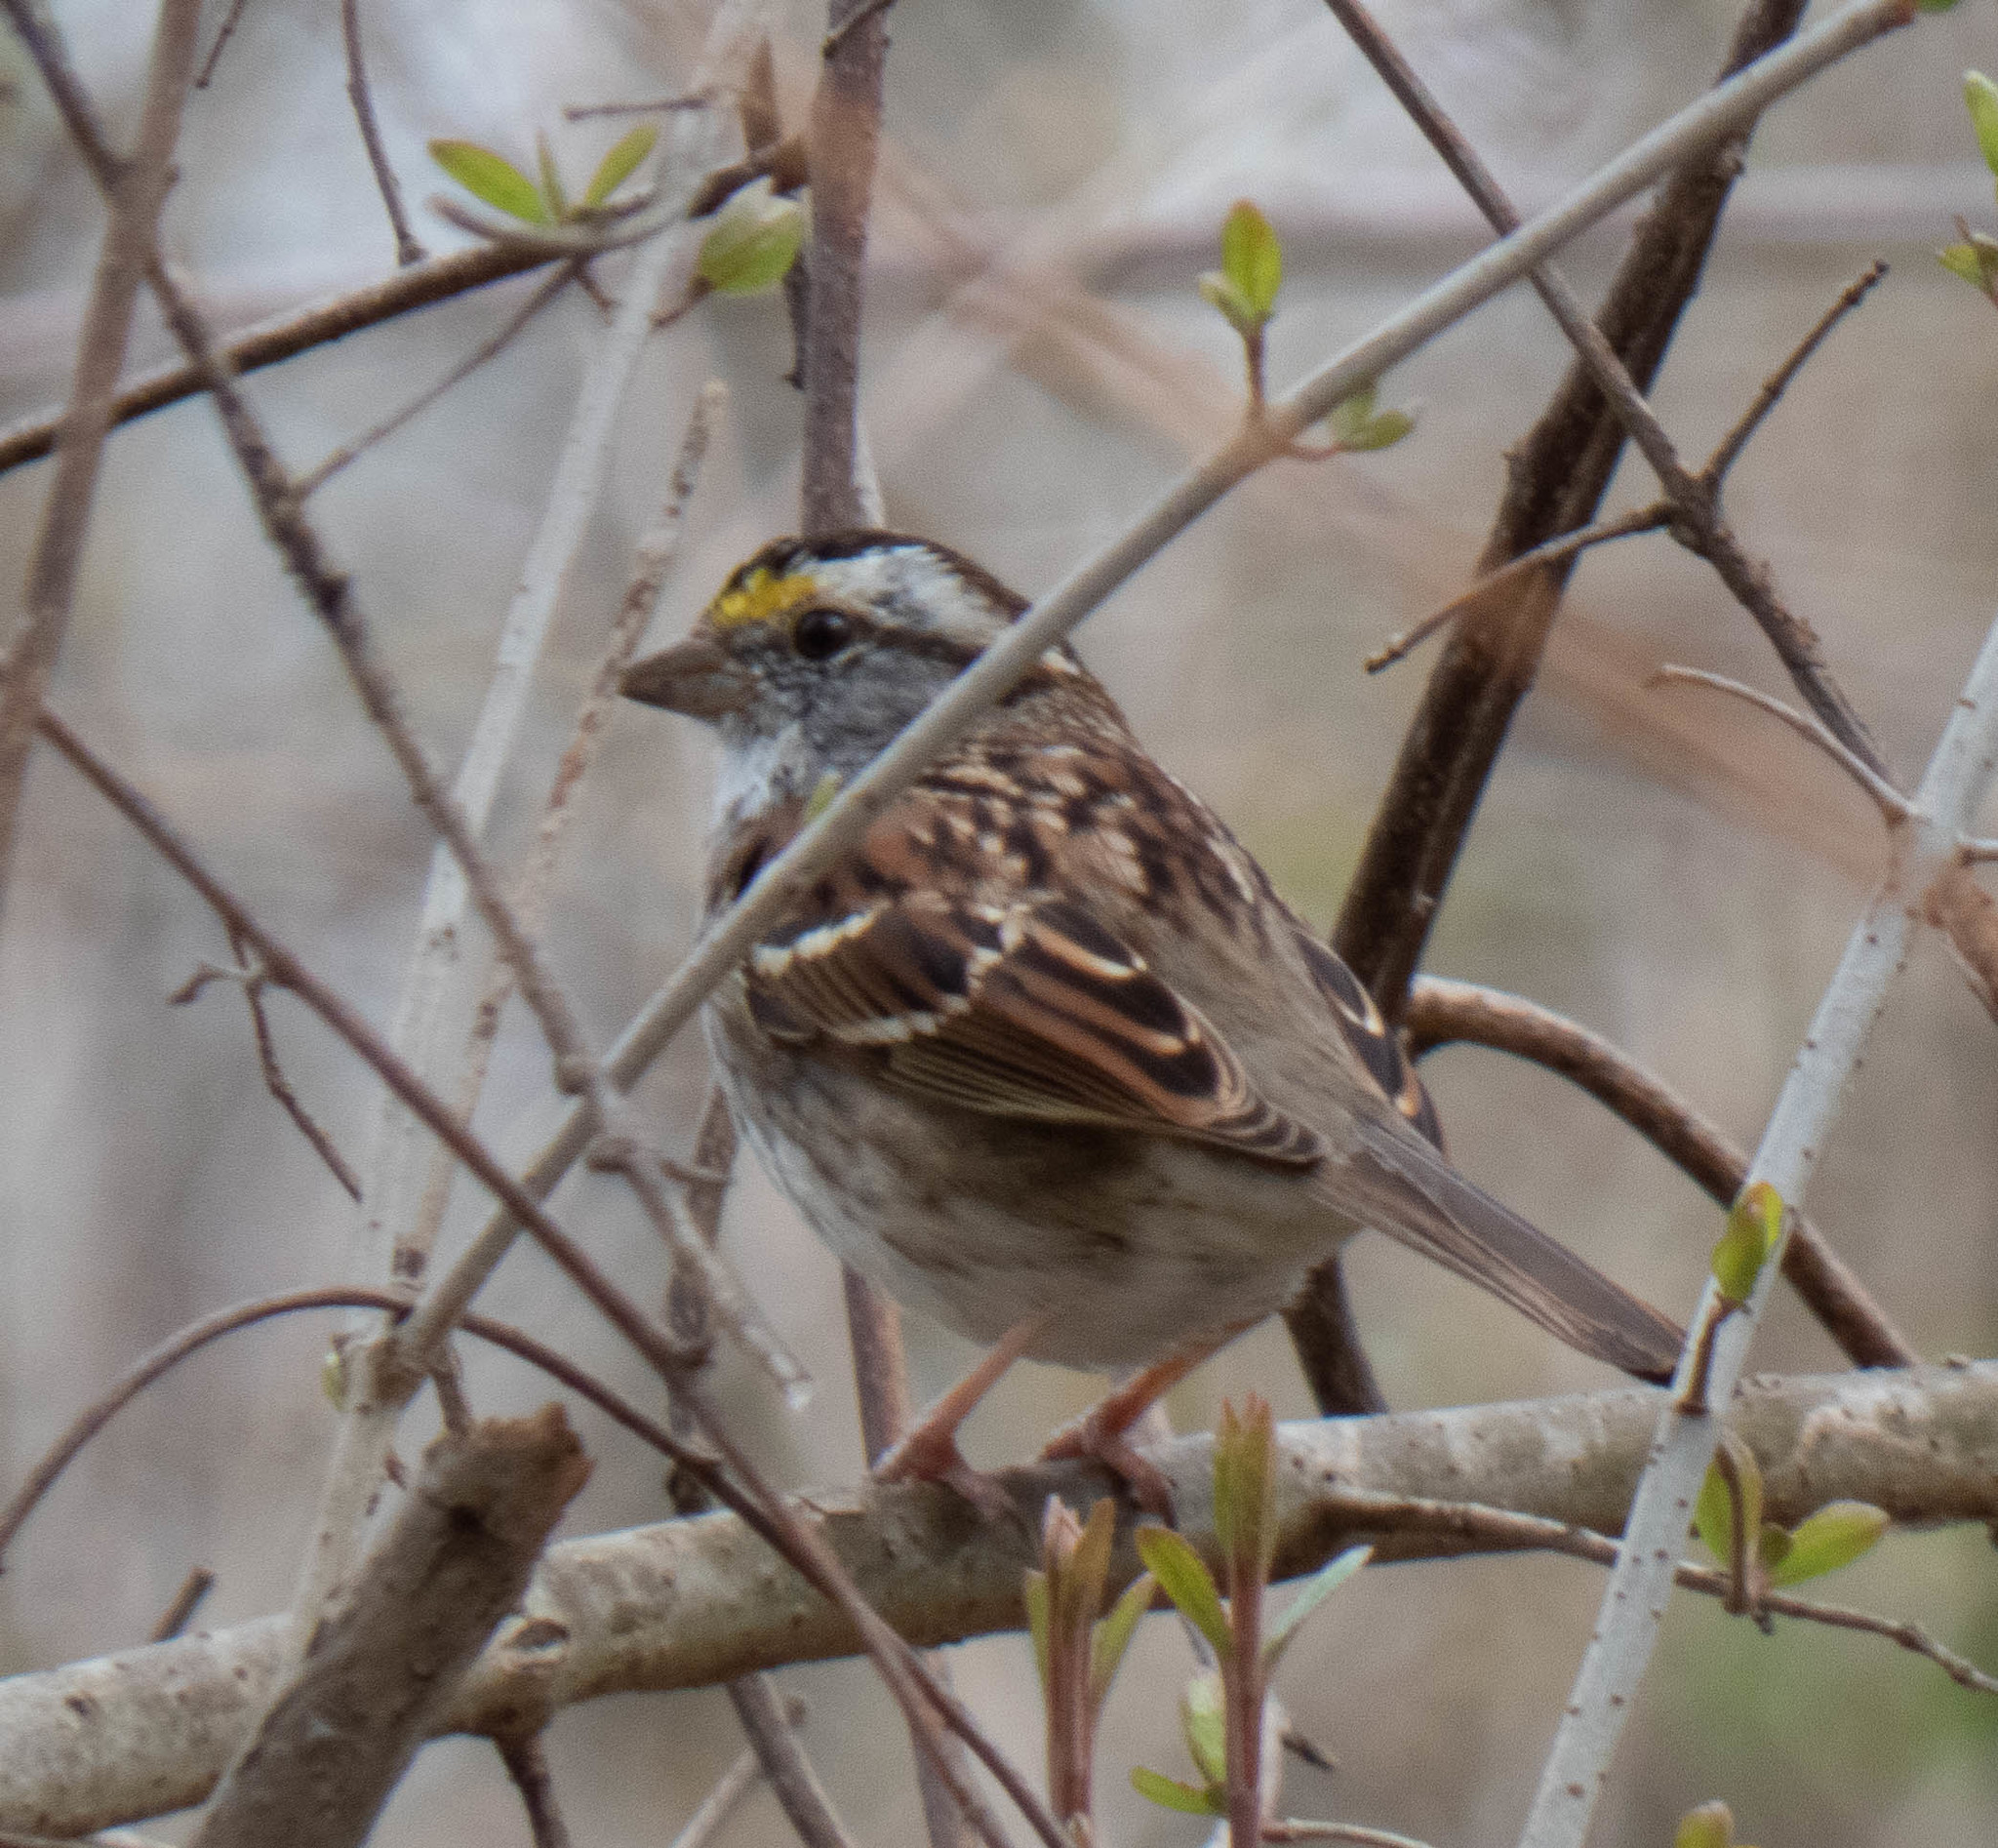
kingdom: Animalia
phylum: Chordata
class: Aves
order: Passeriformes
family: Passerellidae
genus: Zonotrichia
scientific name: Zonotrichia albicollis
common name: White-throated sparrow
